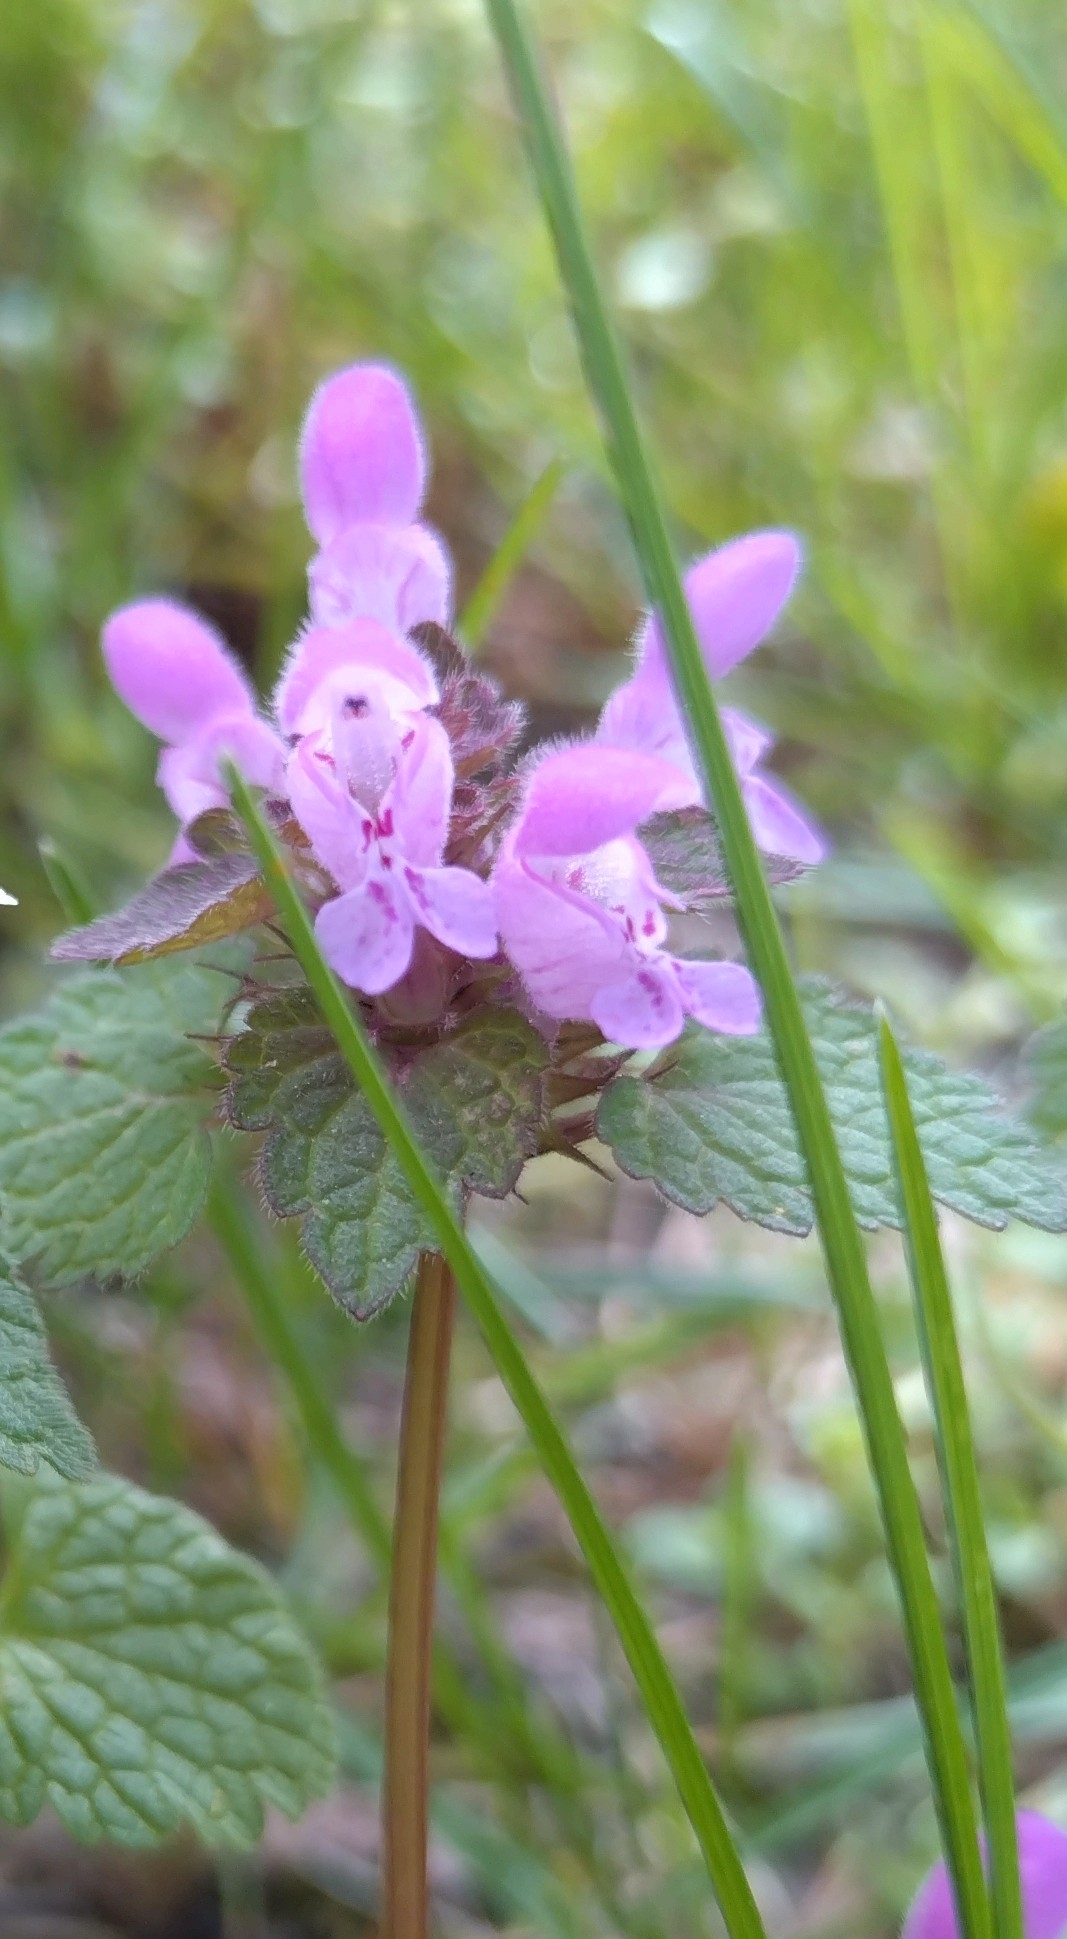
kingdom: Plantae
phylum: Tracheophyta
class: Magnoliopsida
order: Lamiales
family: Lamiaceae
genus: Lamium
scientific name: Lamium purpureum
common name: Red dead-nettle
